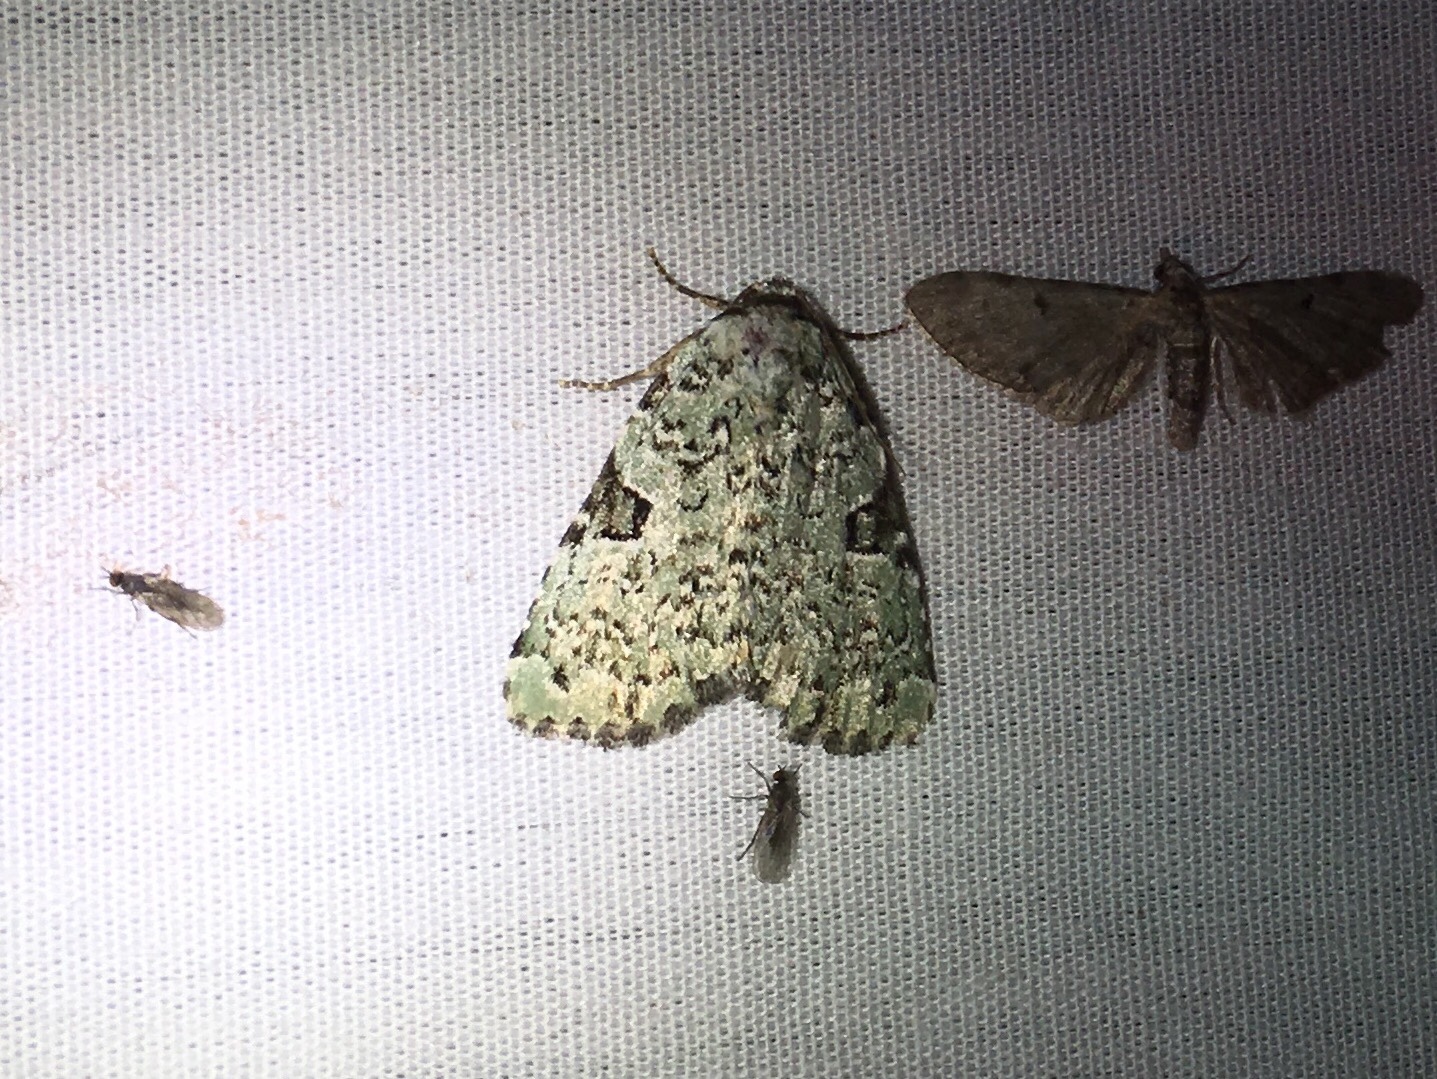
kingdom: Animalia
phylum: Arthropoda
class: Insecta
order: Lepidoptera
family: Noctuidae
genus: Leuconycta
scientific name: Leuconycta diphteroides
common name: Green leuconycta moth
